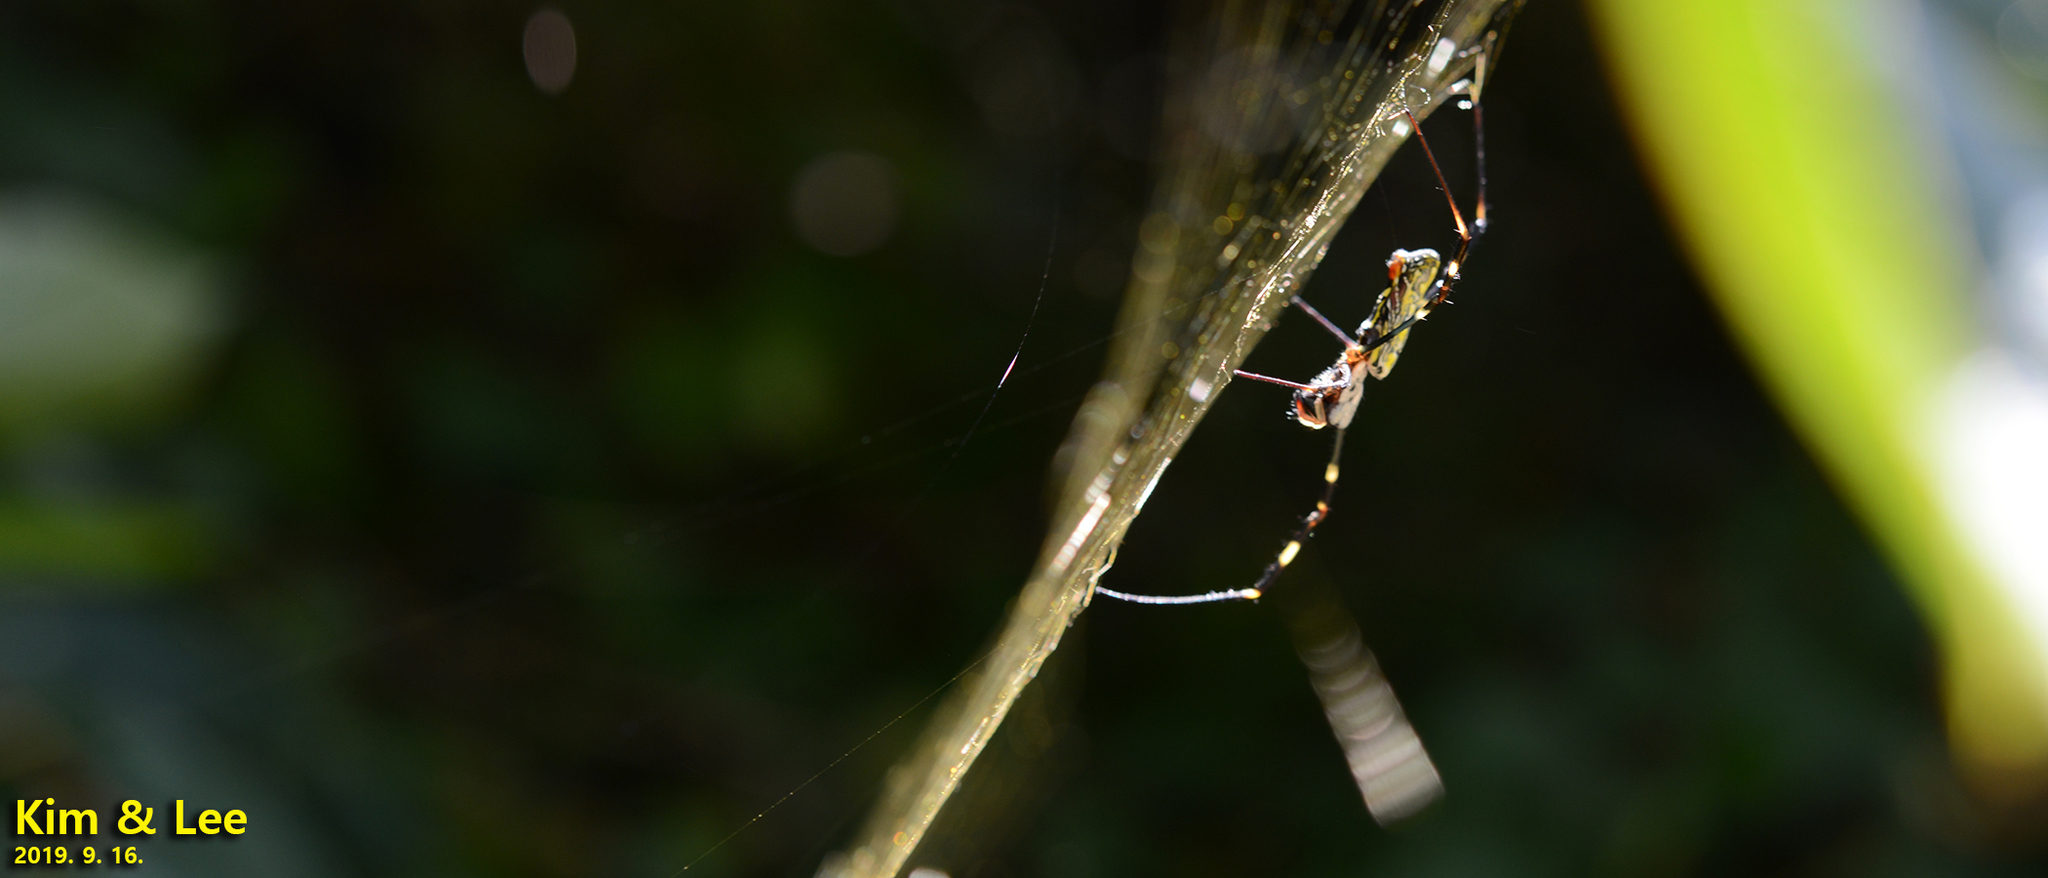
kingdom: Animalia
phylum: Arthropoda
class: Arachnida
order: Araneae
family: Araneidae
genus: Trichonephila
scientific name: Trichonephila clavata
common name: Jorō spider
